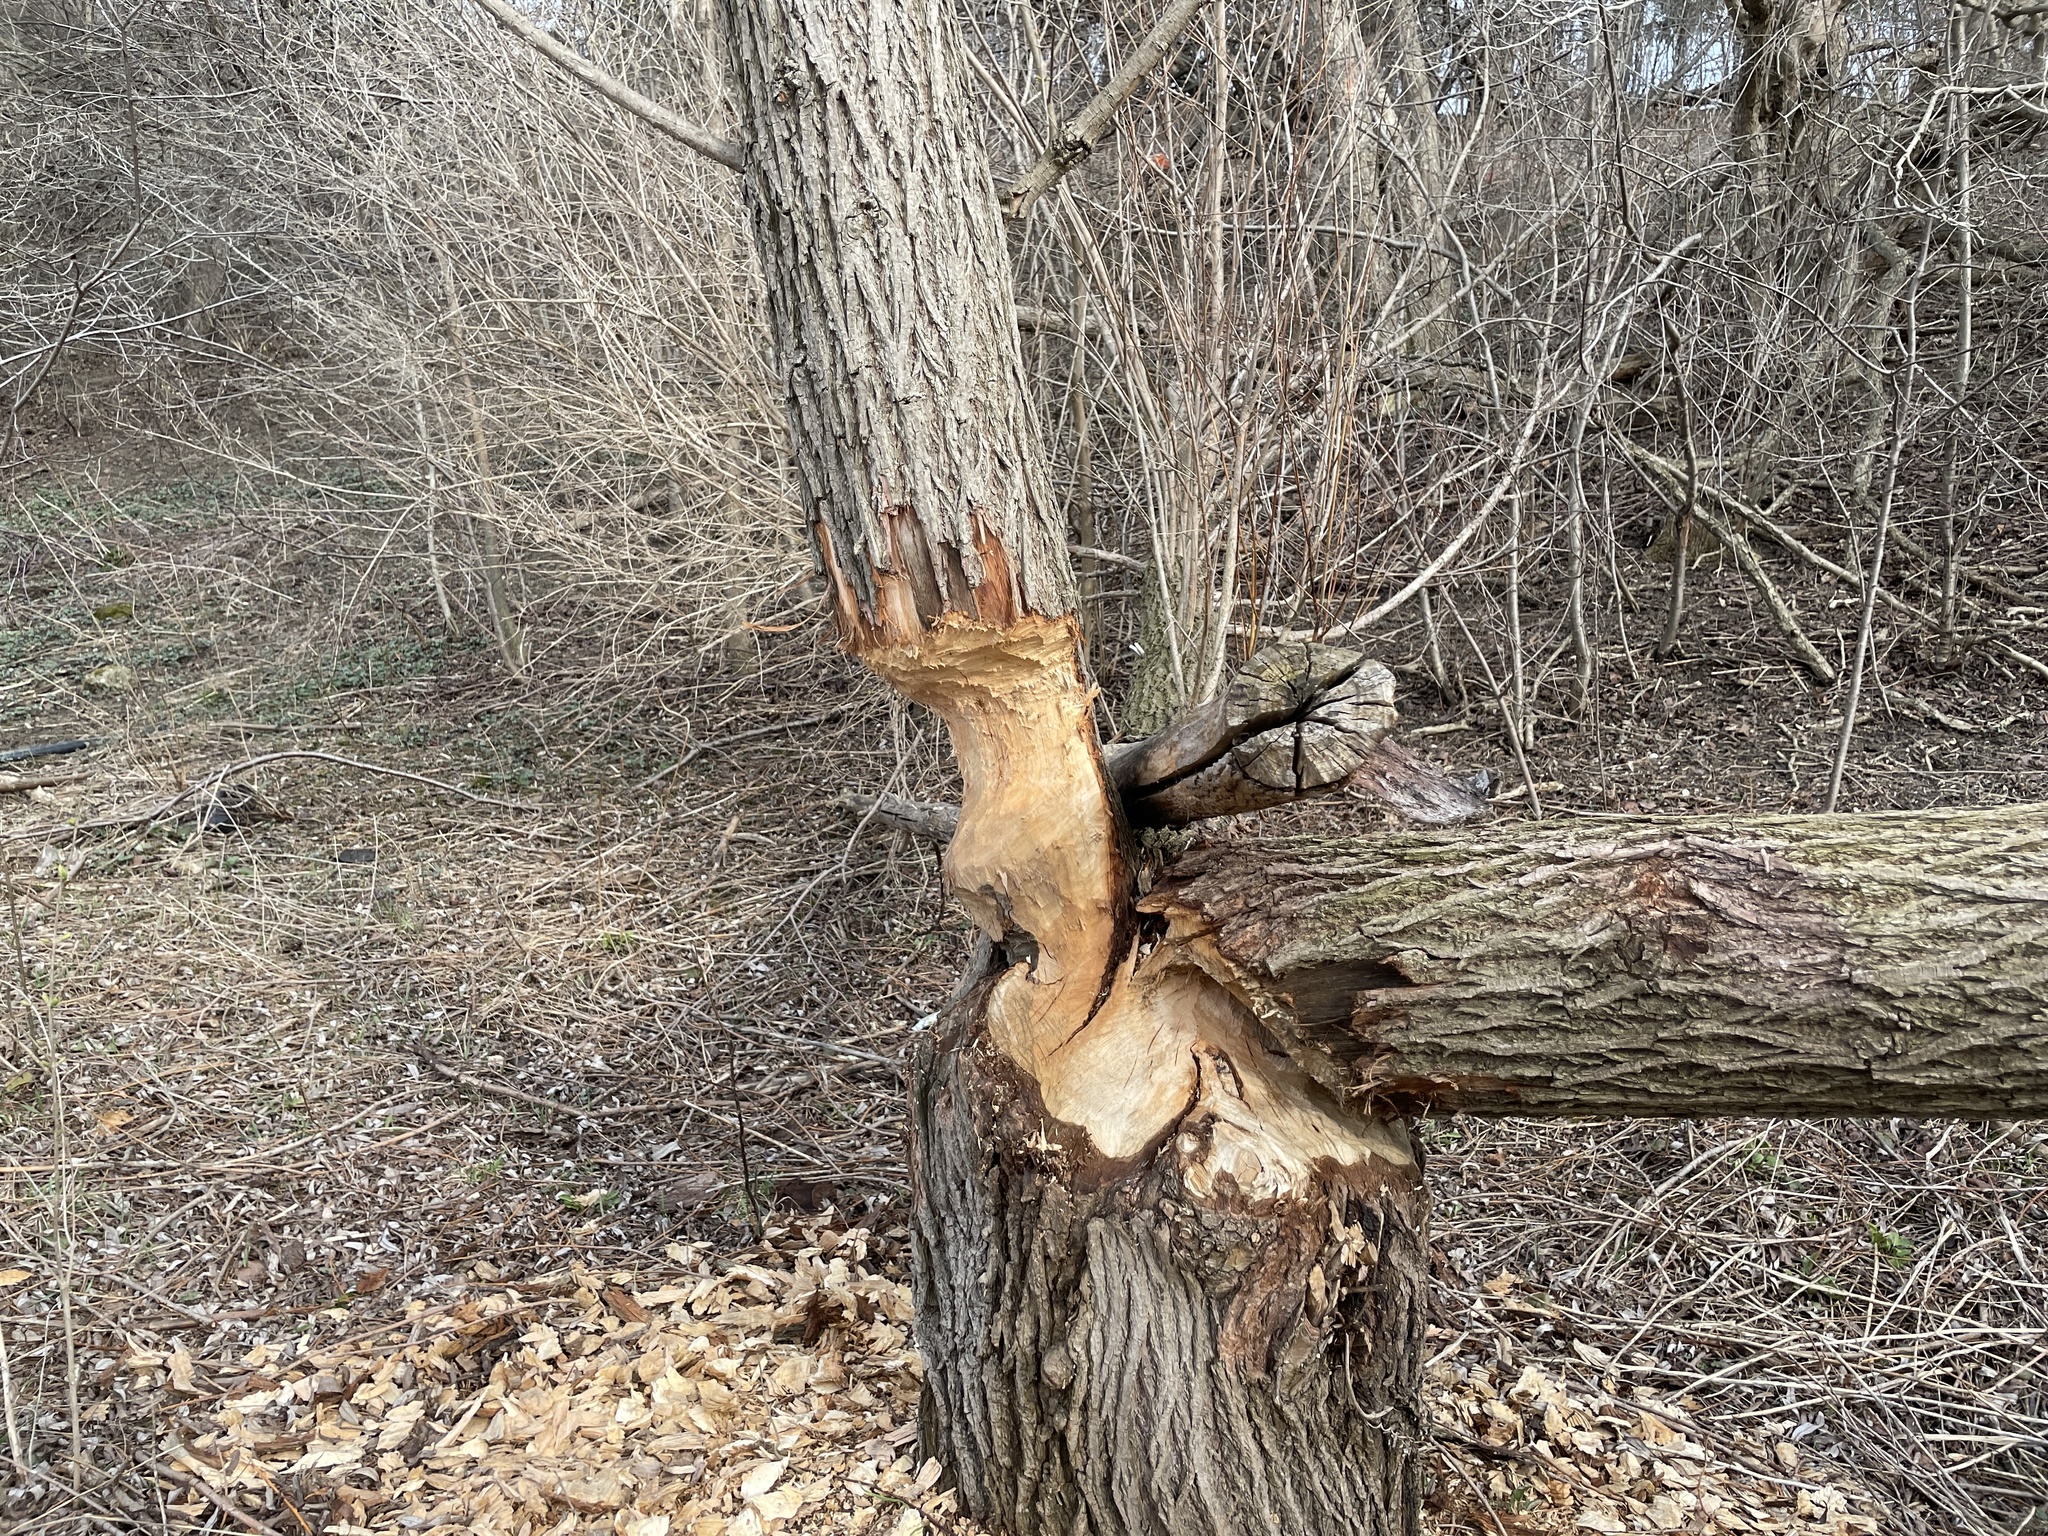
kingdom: Animalia
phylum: Chordata
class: Mammalia
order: Rodentia
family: Castoridae
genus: Castor
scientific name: Castor canadensis
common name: American beaver
